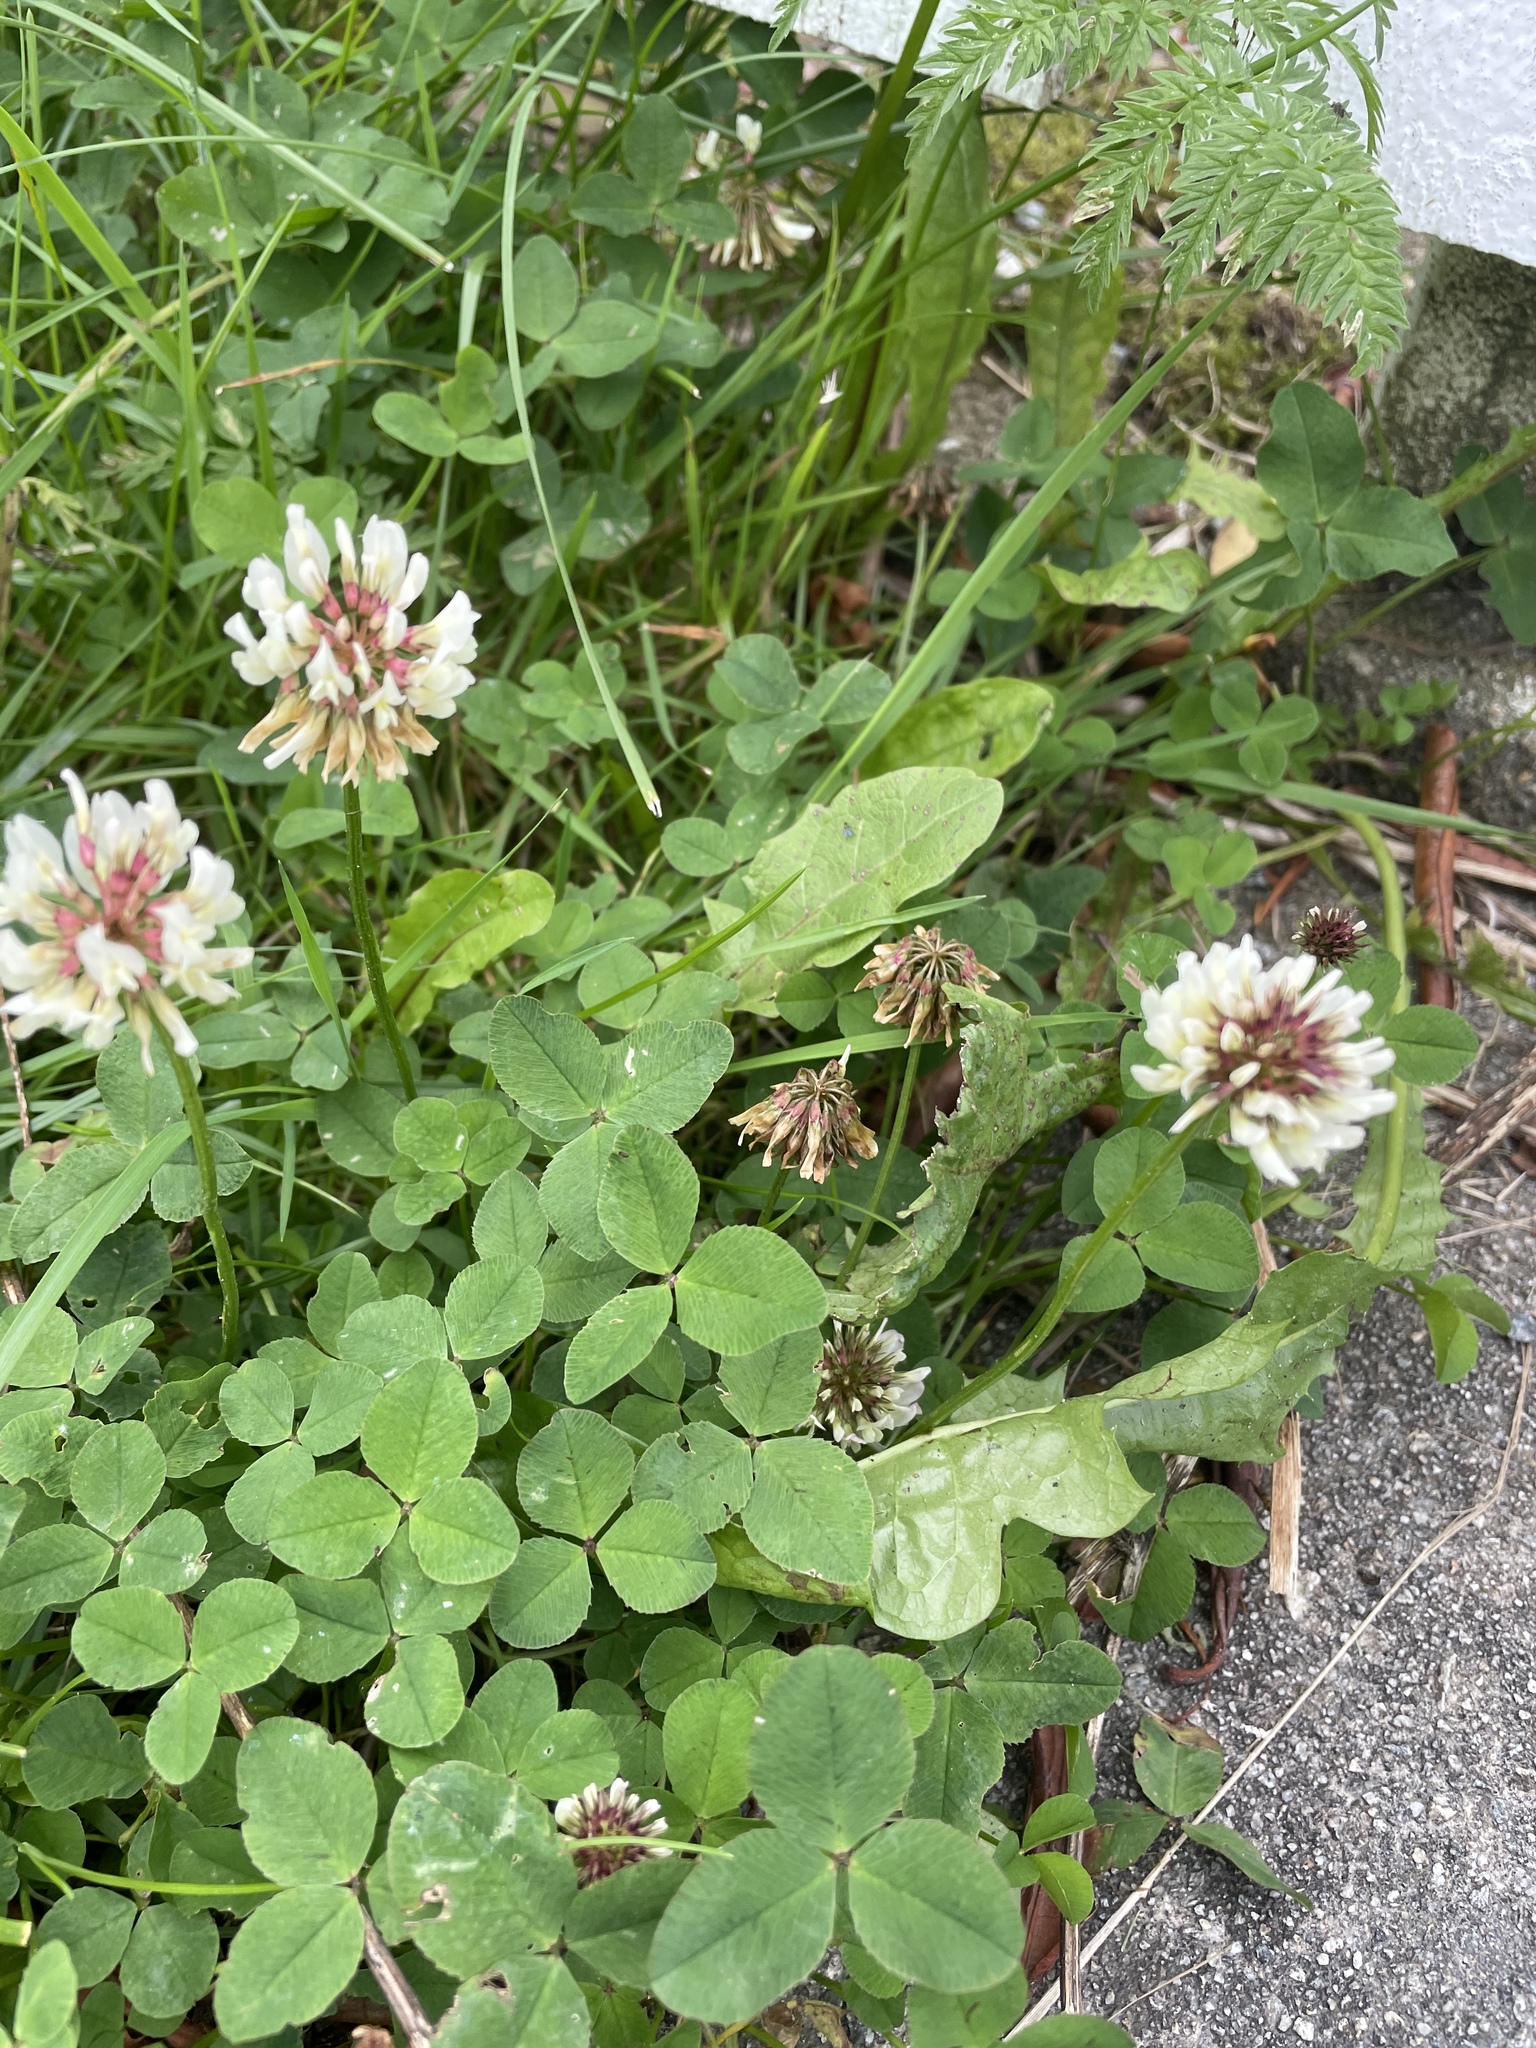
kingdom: Plantae
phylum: Tracheophyta
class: Magnoliopsida
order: Fabales
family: Fabaceae
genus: Trifolium
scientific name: Trifolium repens
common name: White clover
